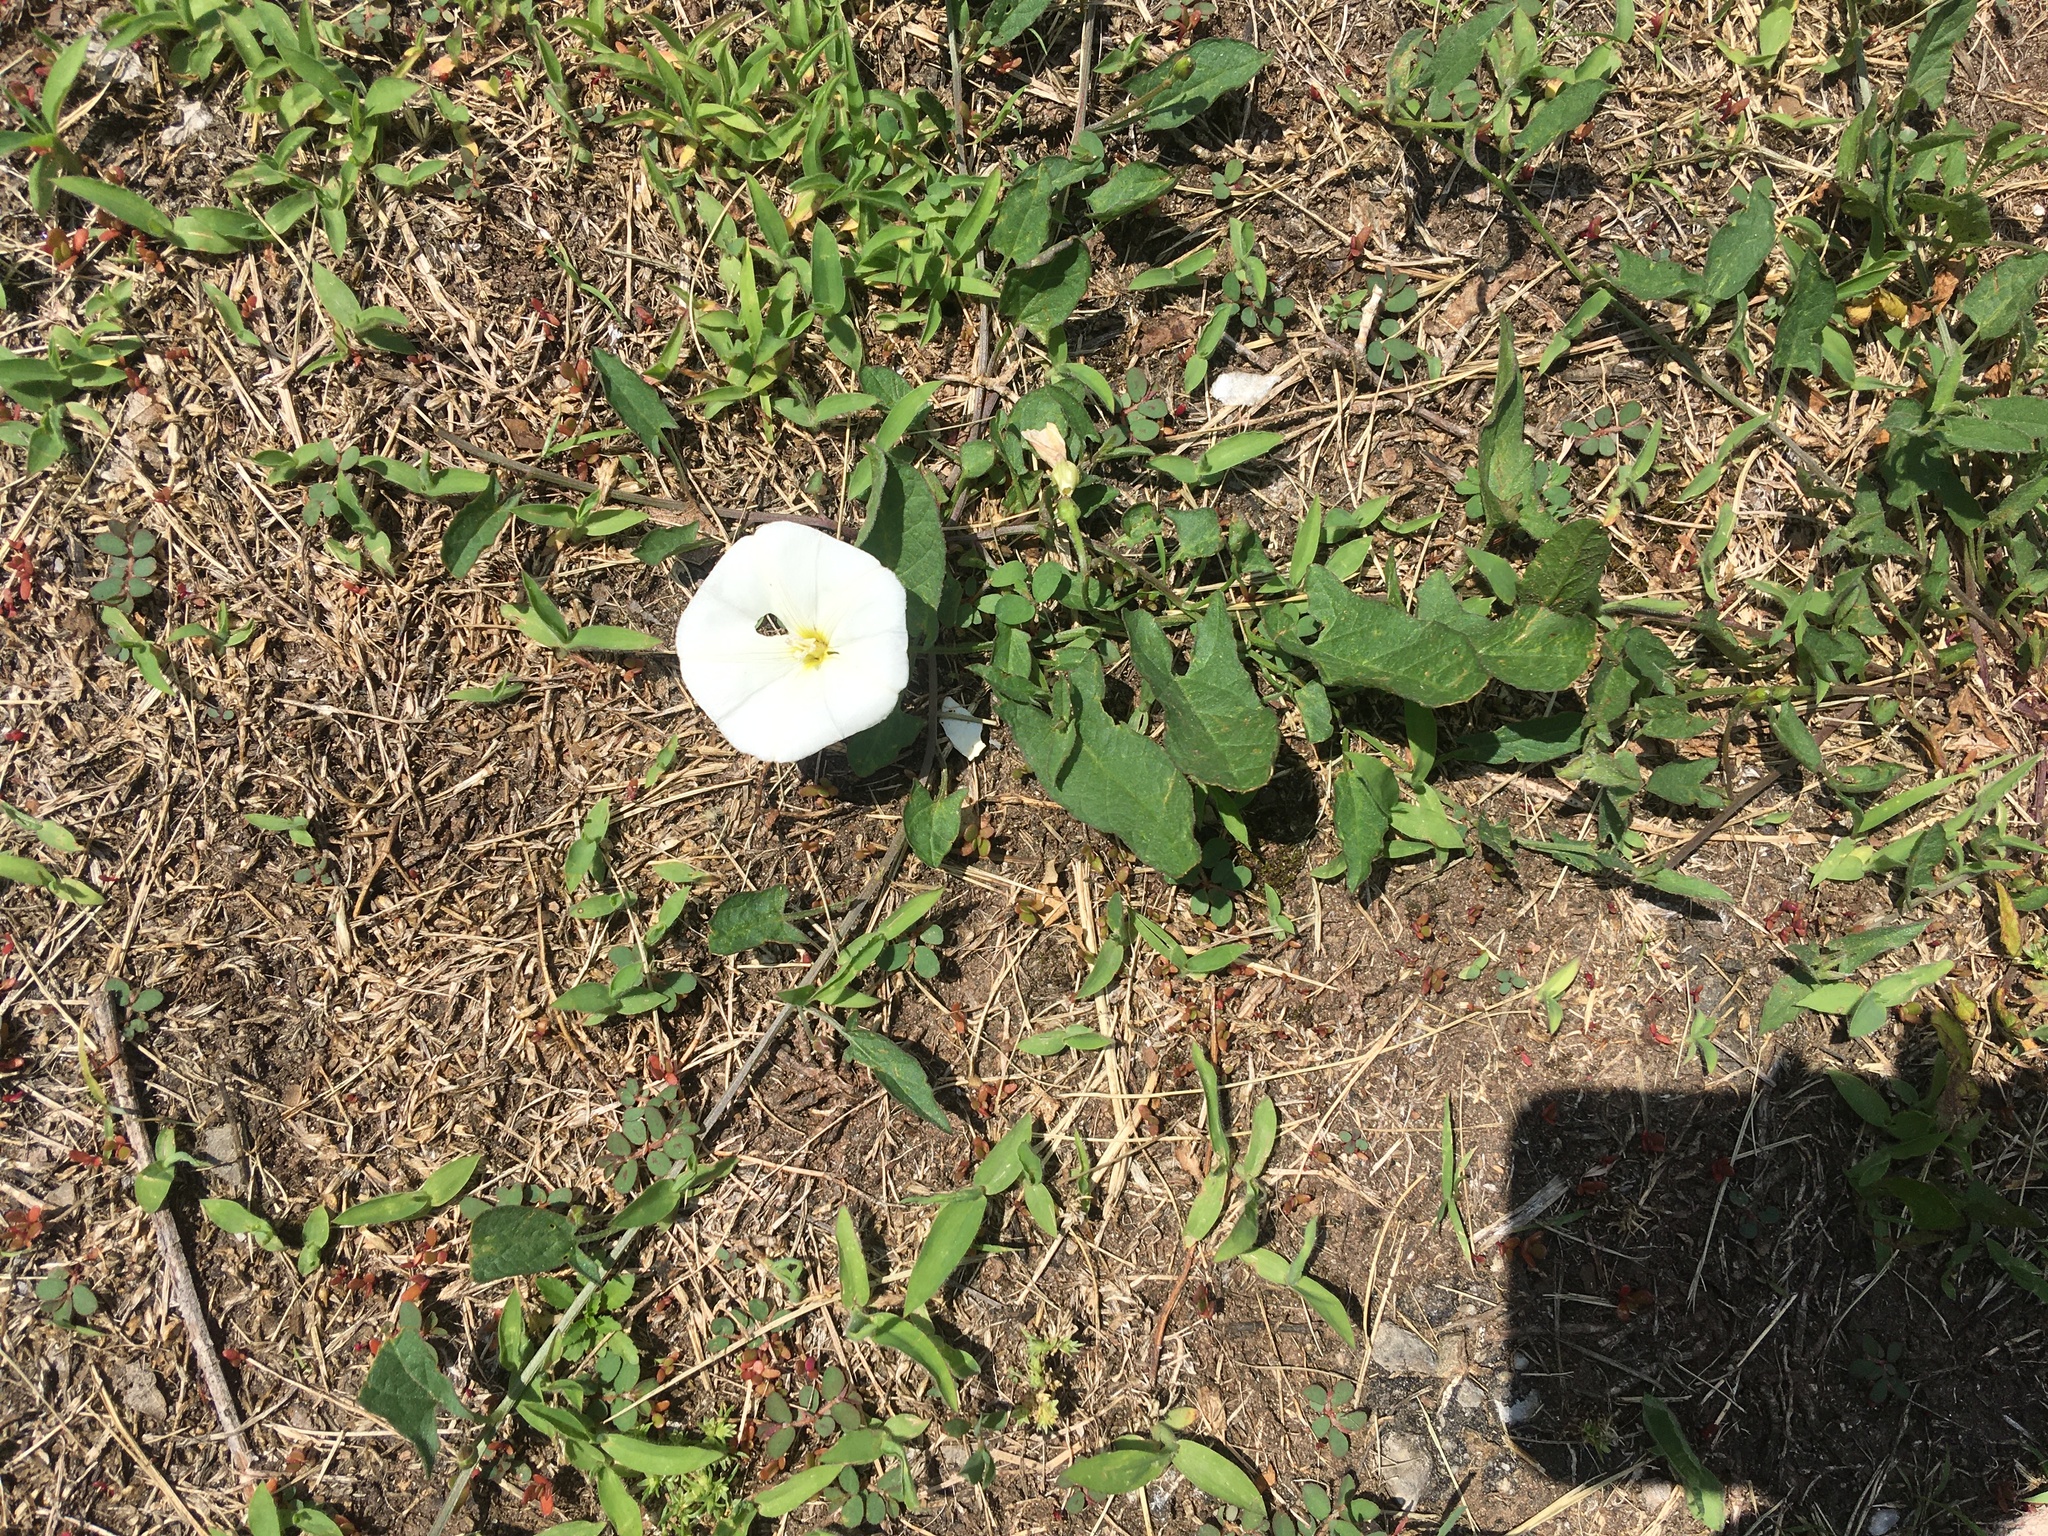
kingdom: Plantae
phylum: Tracheophyta
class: Magnoliopsida
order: Solanales
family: Convolvulaceae
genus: Convolvulus
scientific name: Convolvulus arvensis
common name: Field bindweed
